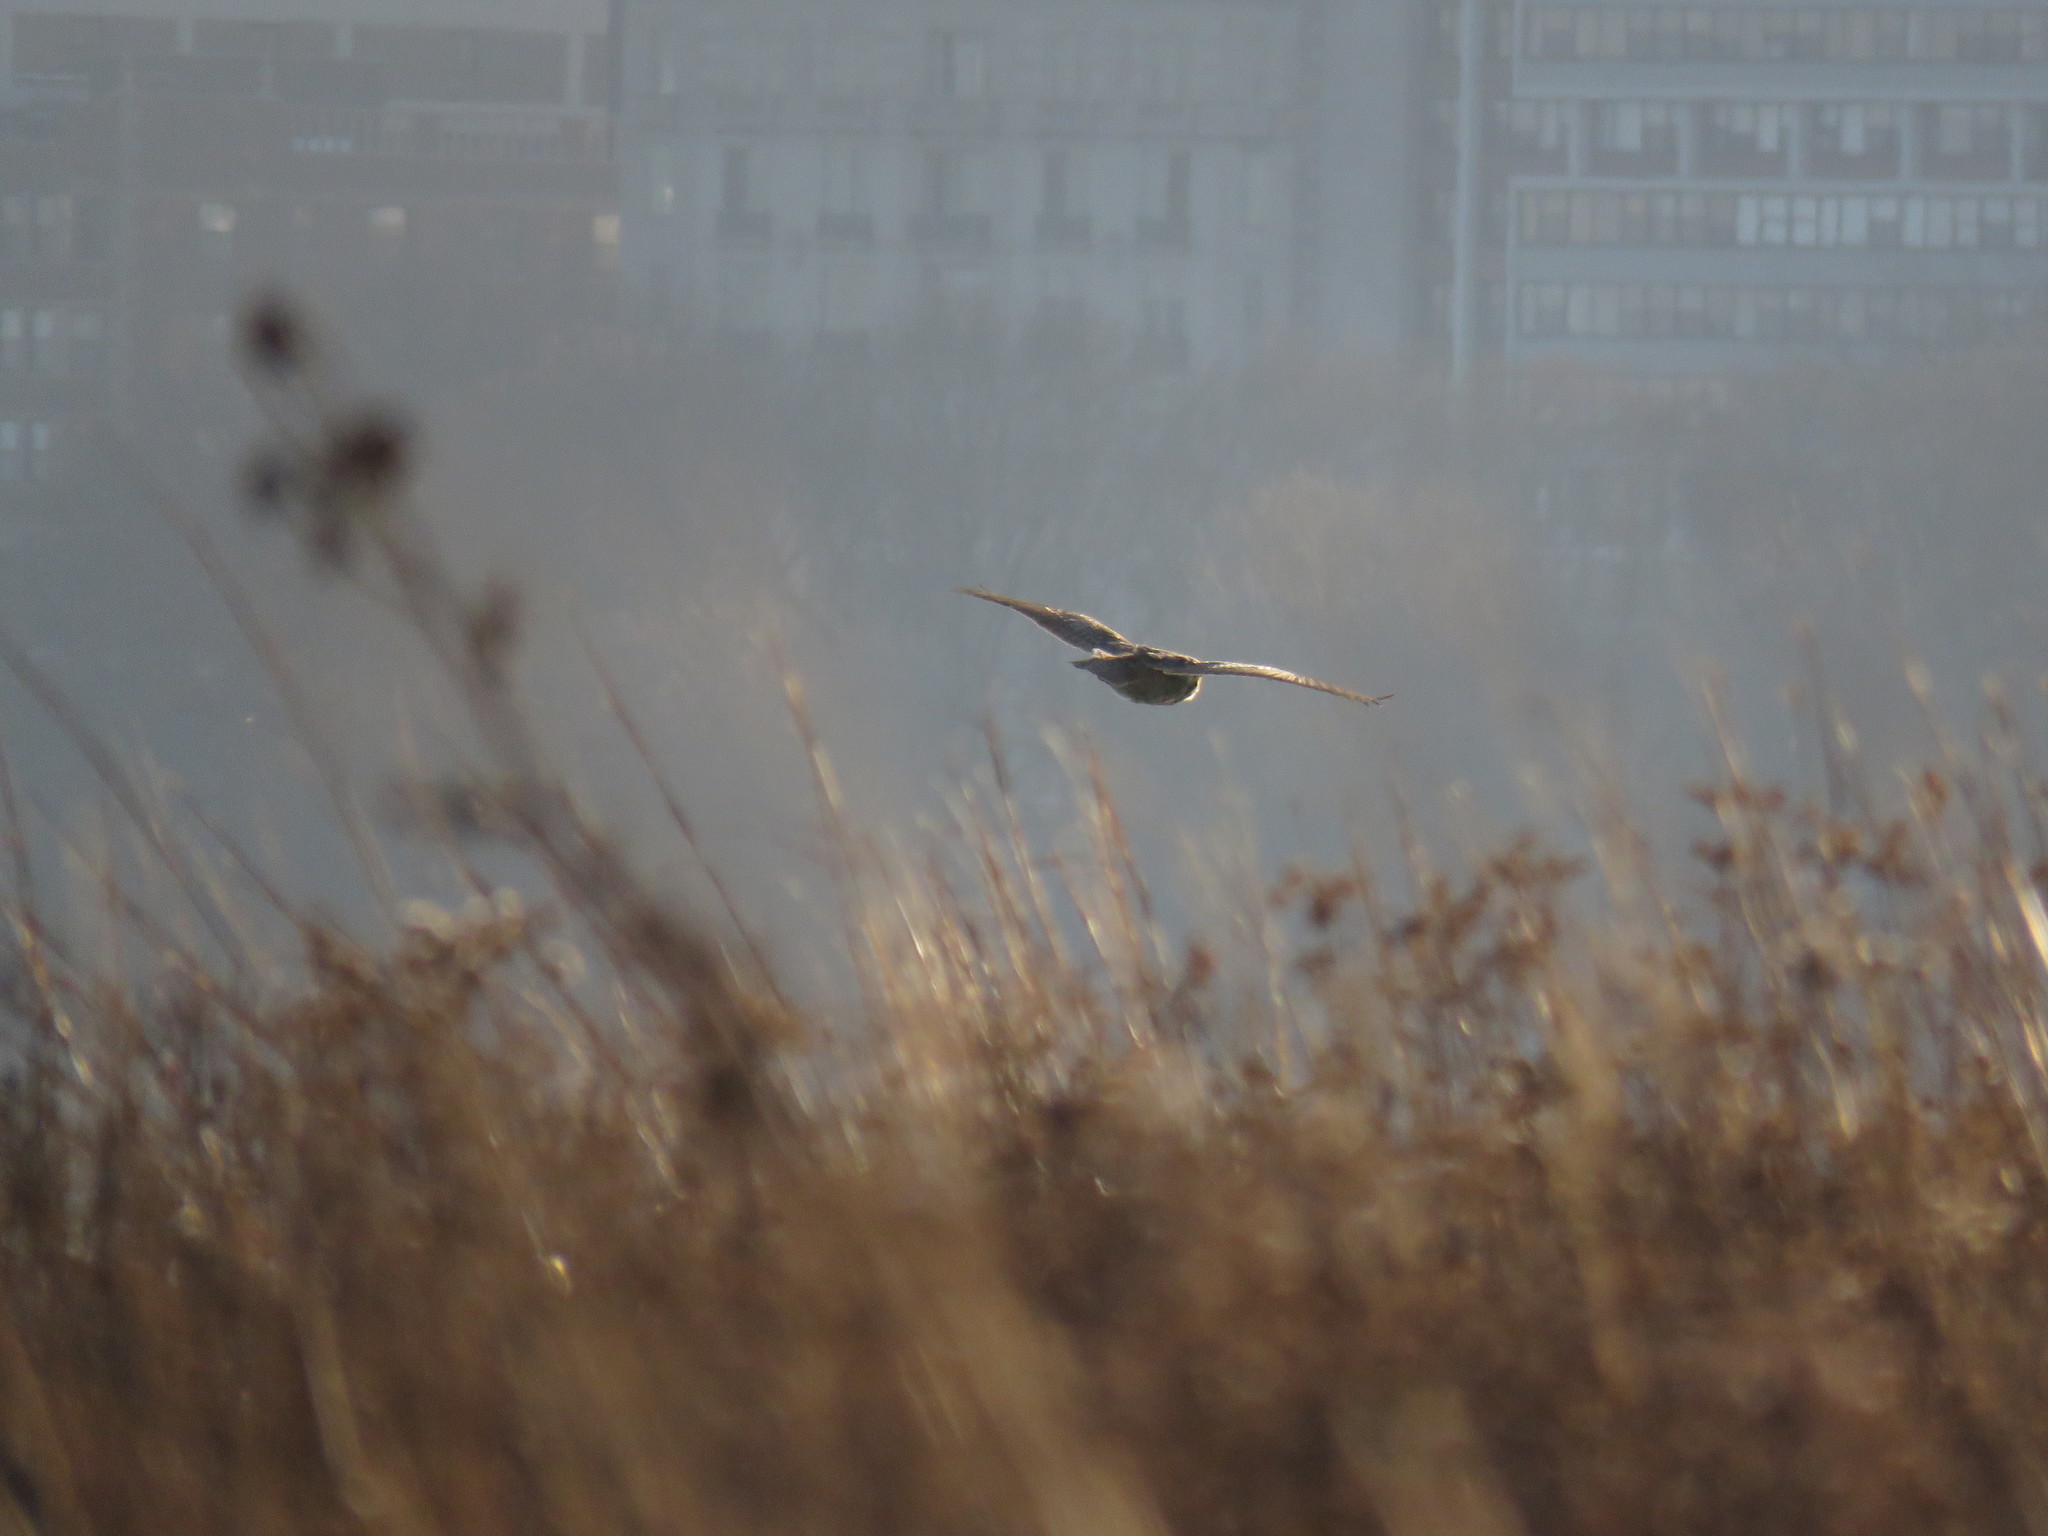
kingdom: Animalia
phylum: Chordata
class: Aves
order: Strigiformes
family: Strigidae
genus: Bubo
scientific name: Bubo virginianus
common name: Great horned owl
